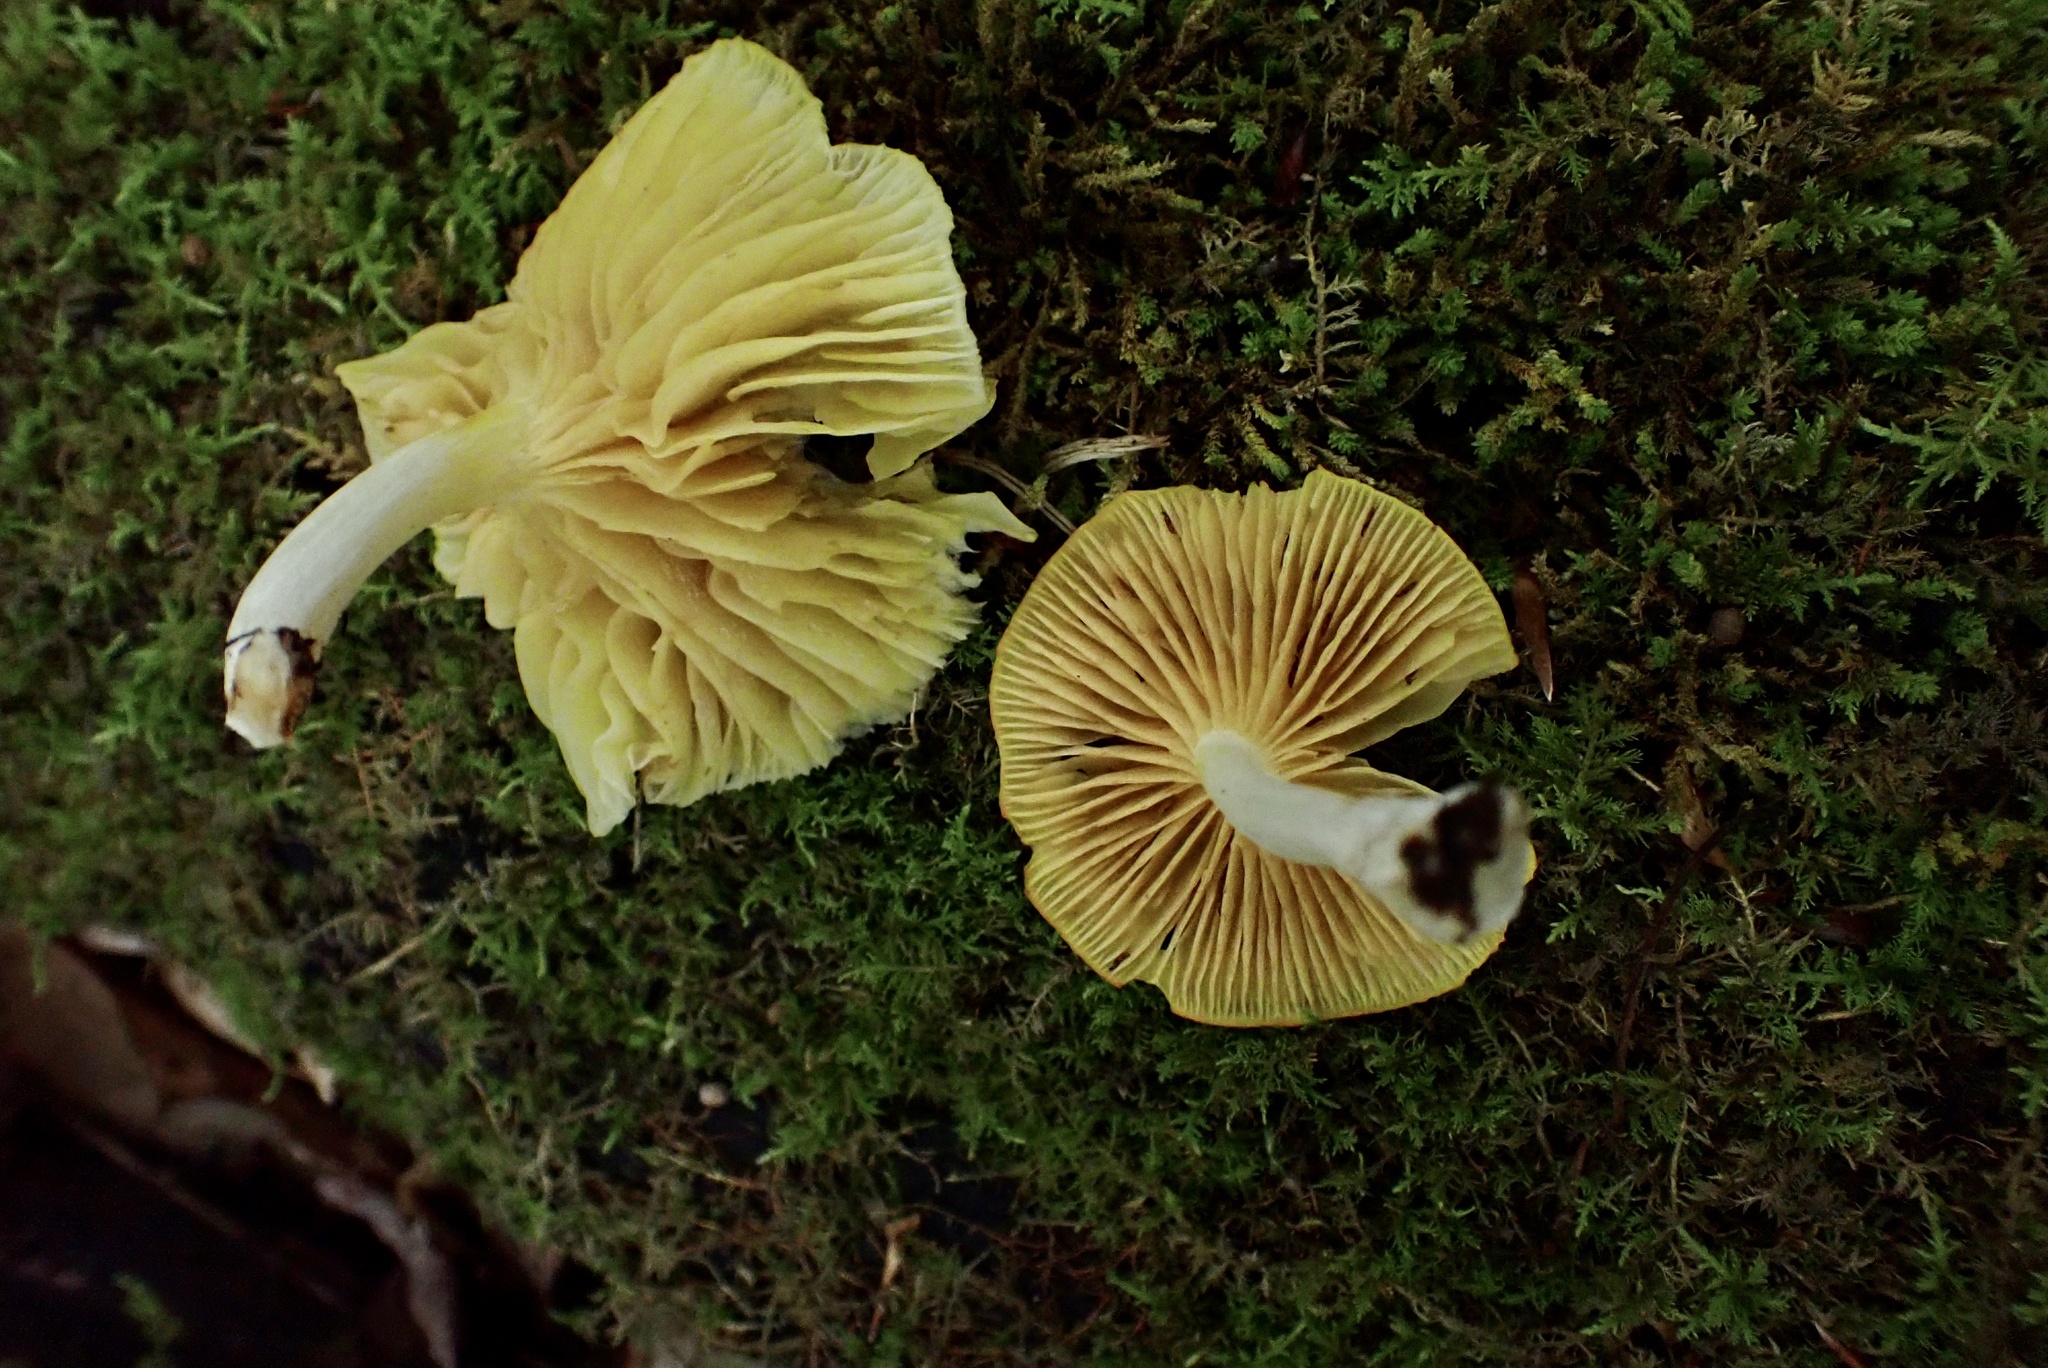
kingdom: Fungi
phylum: Basidiomycota
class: Agaricomycetes
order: Agaricales
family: Marasmiaceae
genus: Gerronema
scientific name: Gerronema strombodes
